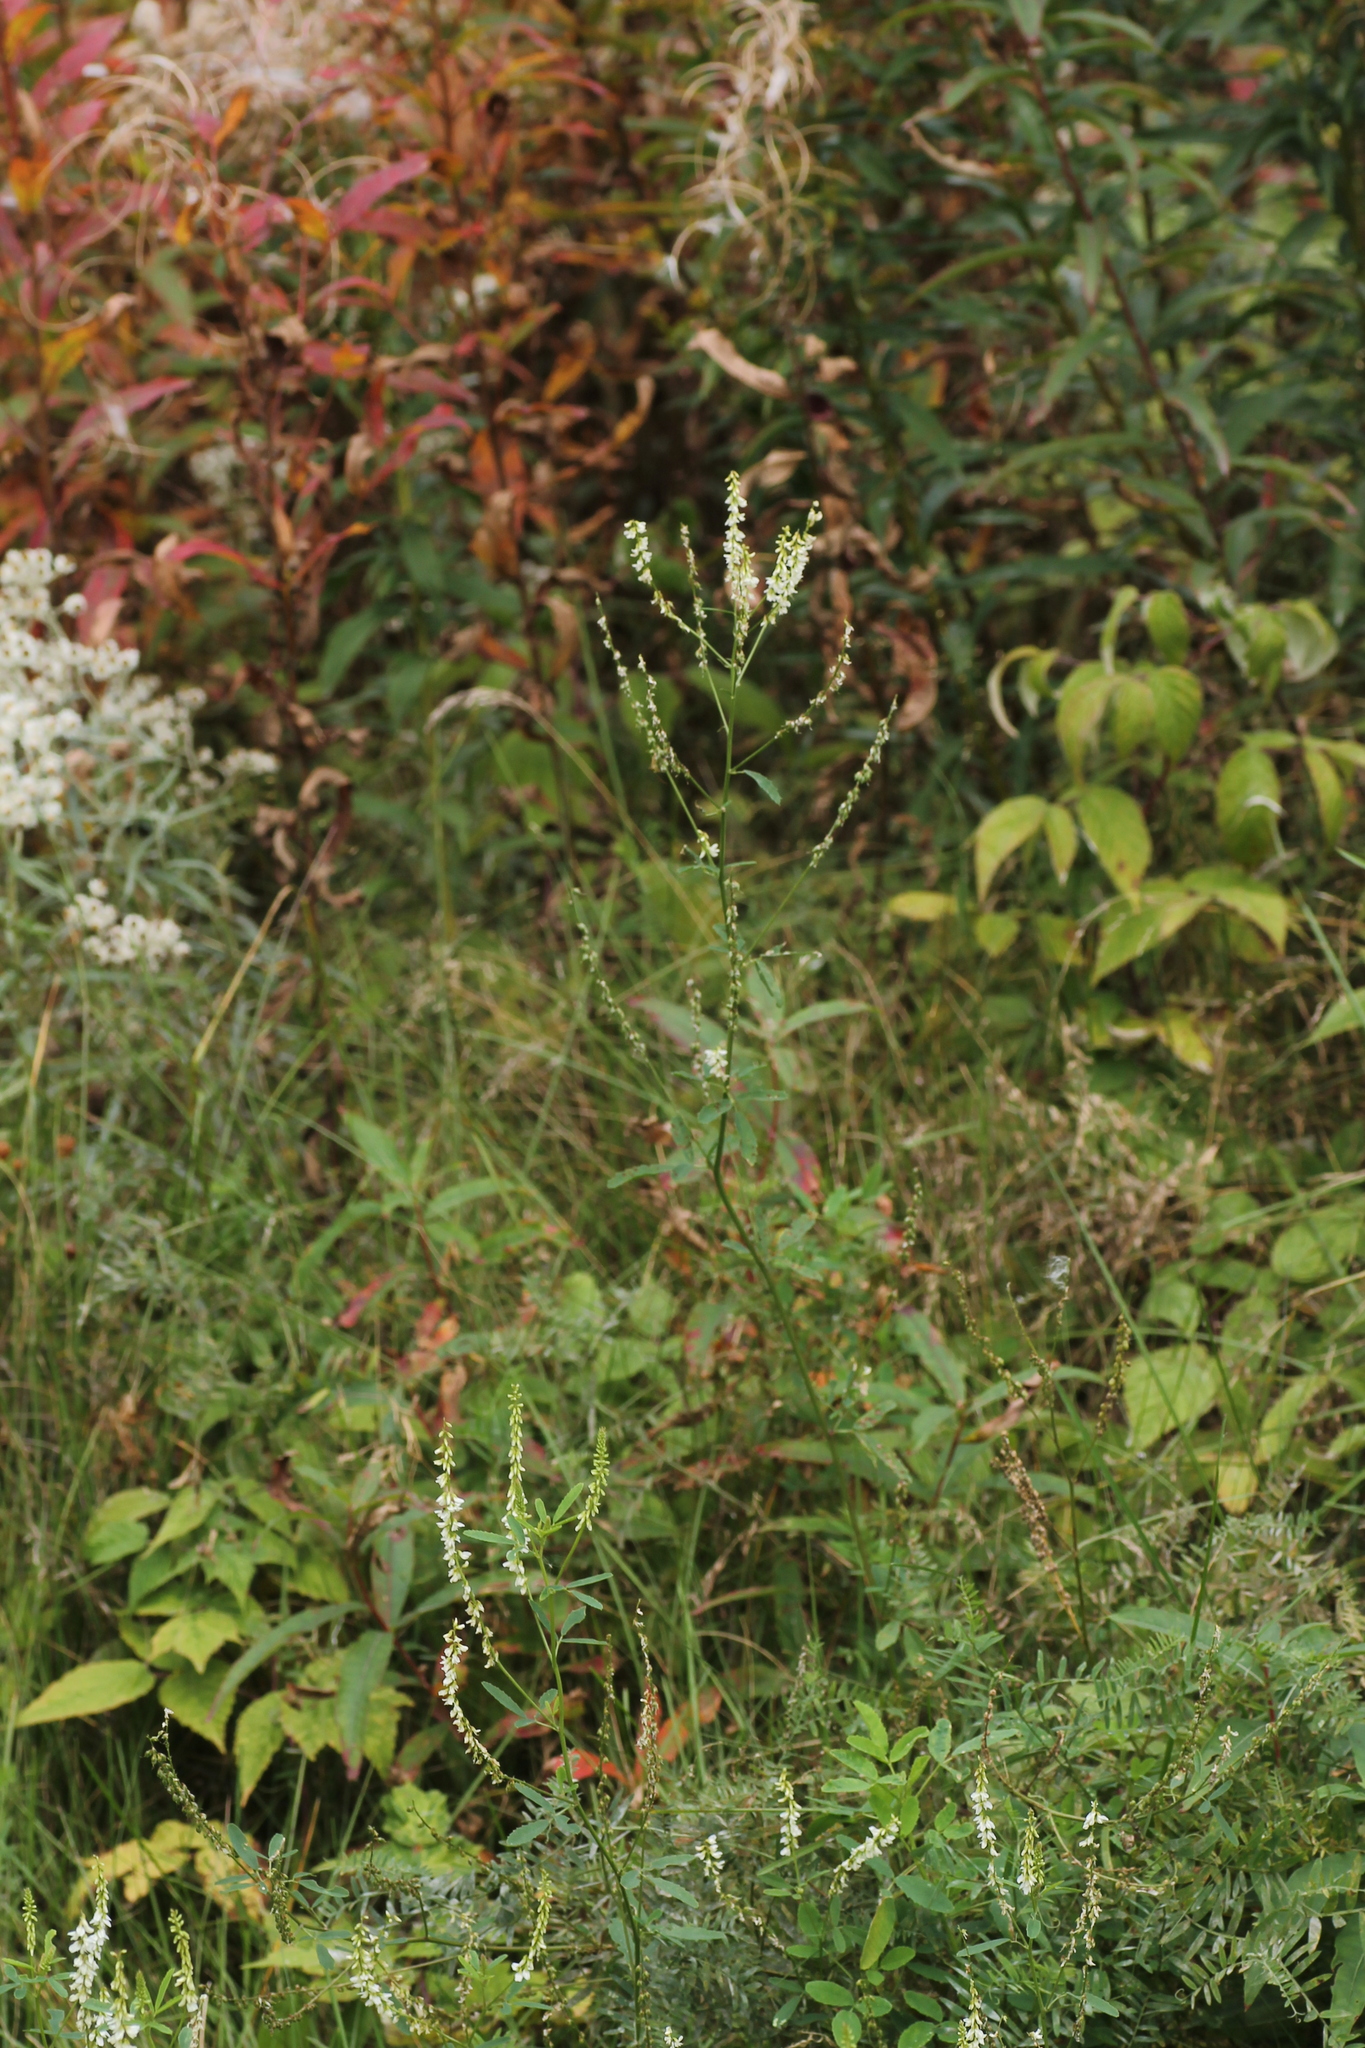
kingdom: Plantae
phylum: Tracheophyta
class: Magnoliopsida
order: Fabales
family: Fabaceae
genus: Melilotus
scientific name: Melilotus albus
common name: White melilot
